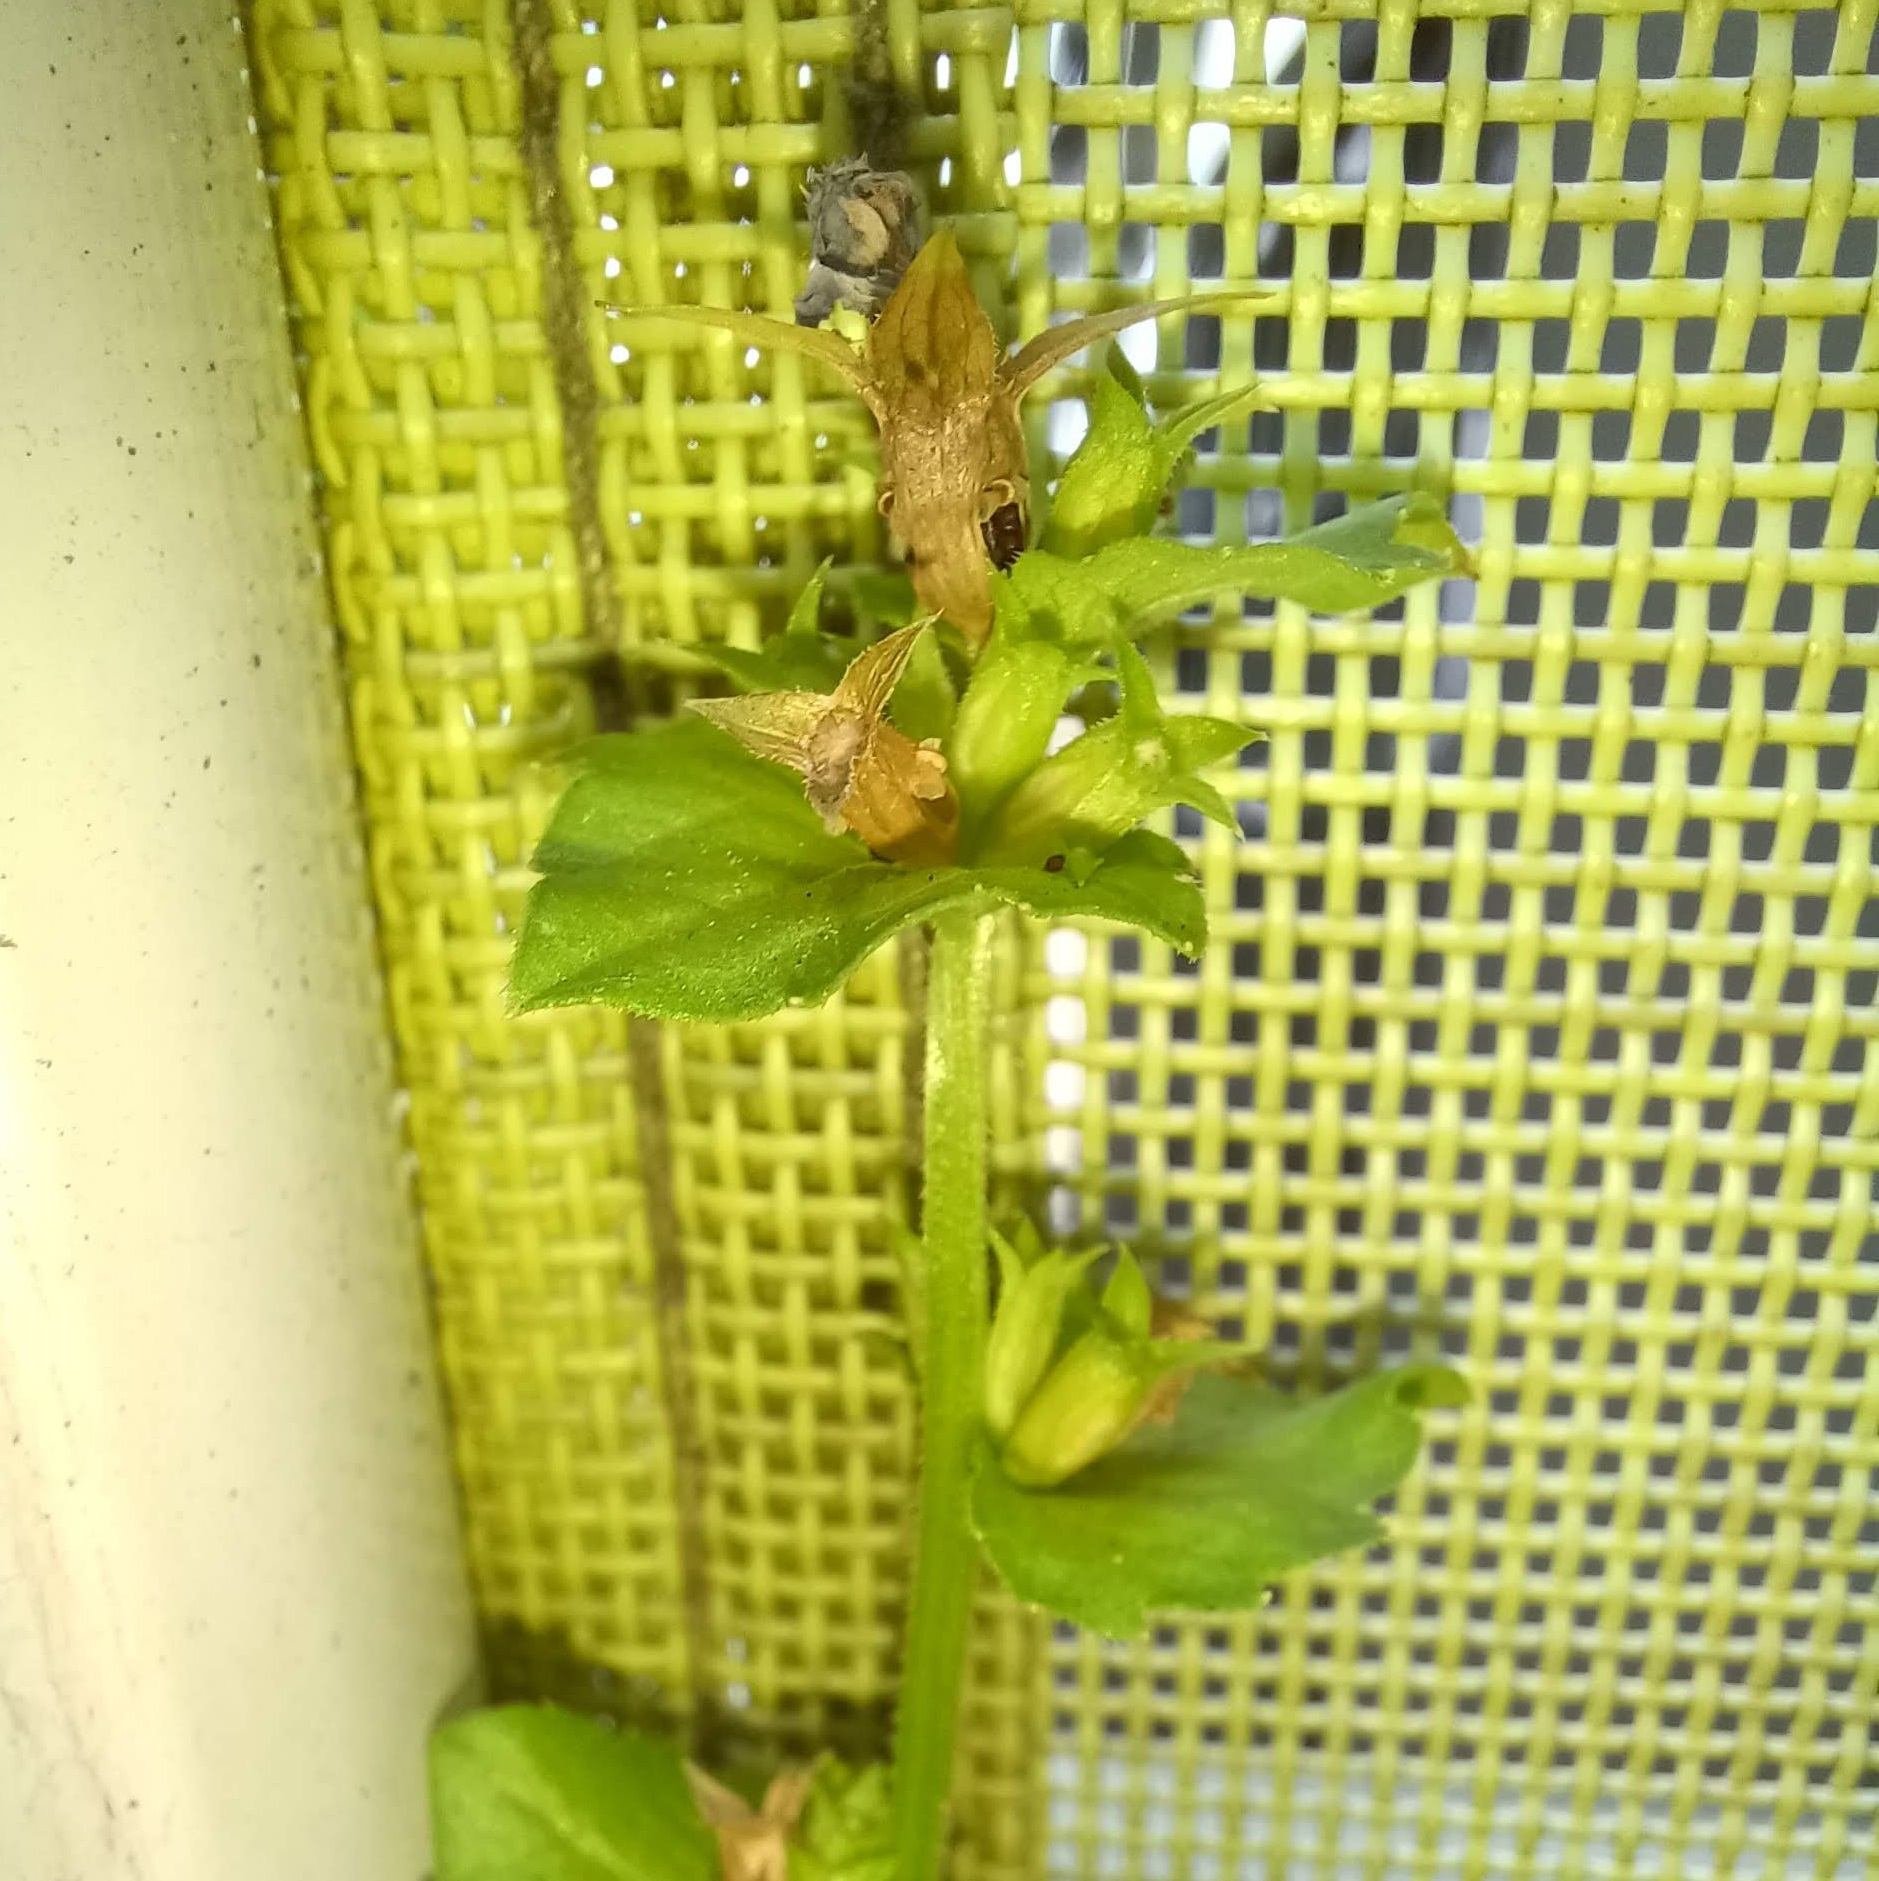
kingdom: Plantae
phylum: Tracheophyta
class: Magnoliopsida
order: Asterales
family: Campanulaceae
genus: Triodanis
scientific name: Triodanis perfoliata
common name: Clasping venus' looking-glass
